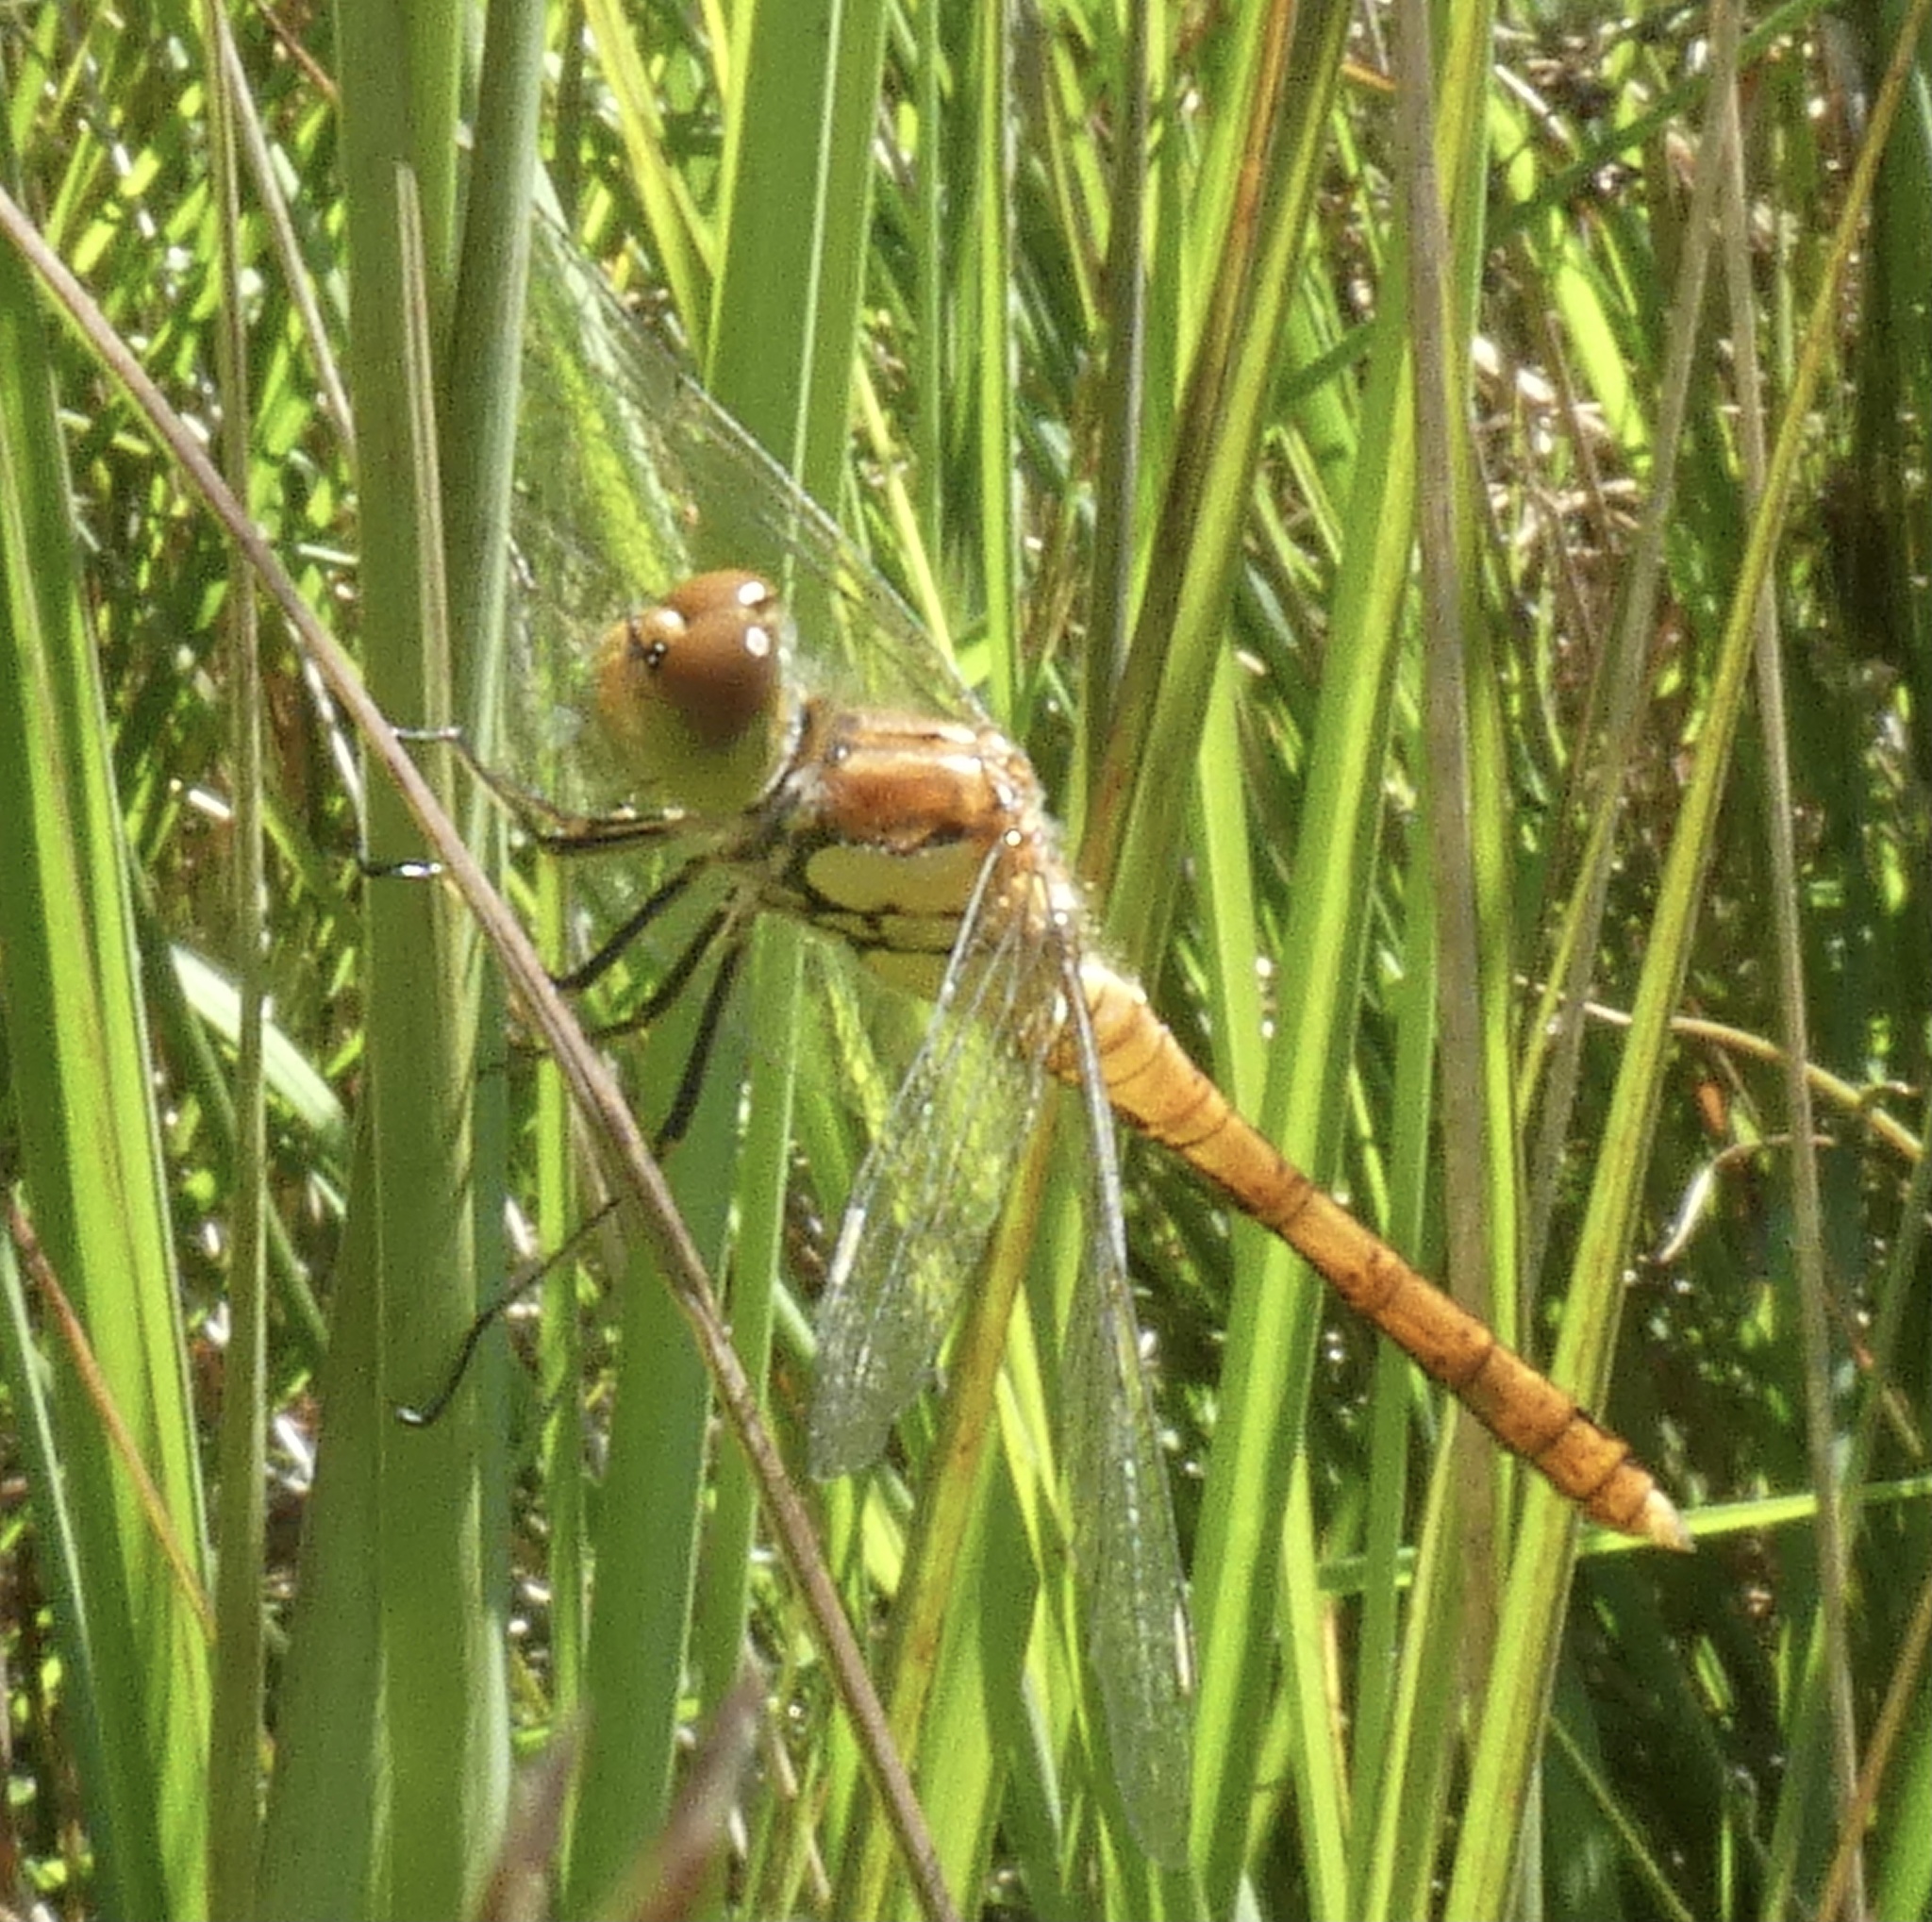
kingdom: Animalia
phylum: Arthropoda
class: Insecta
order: Odonata
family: Libellulidae
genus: Sympetrum
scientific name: Sympetrum striolatum
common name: Common darter
